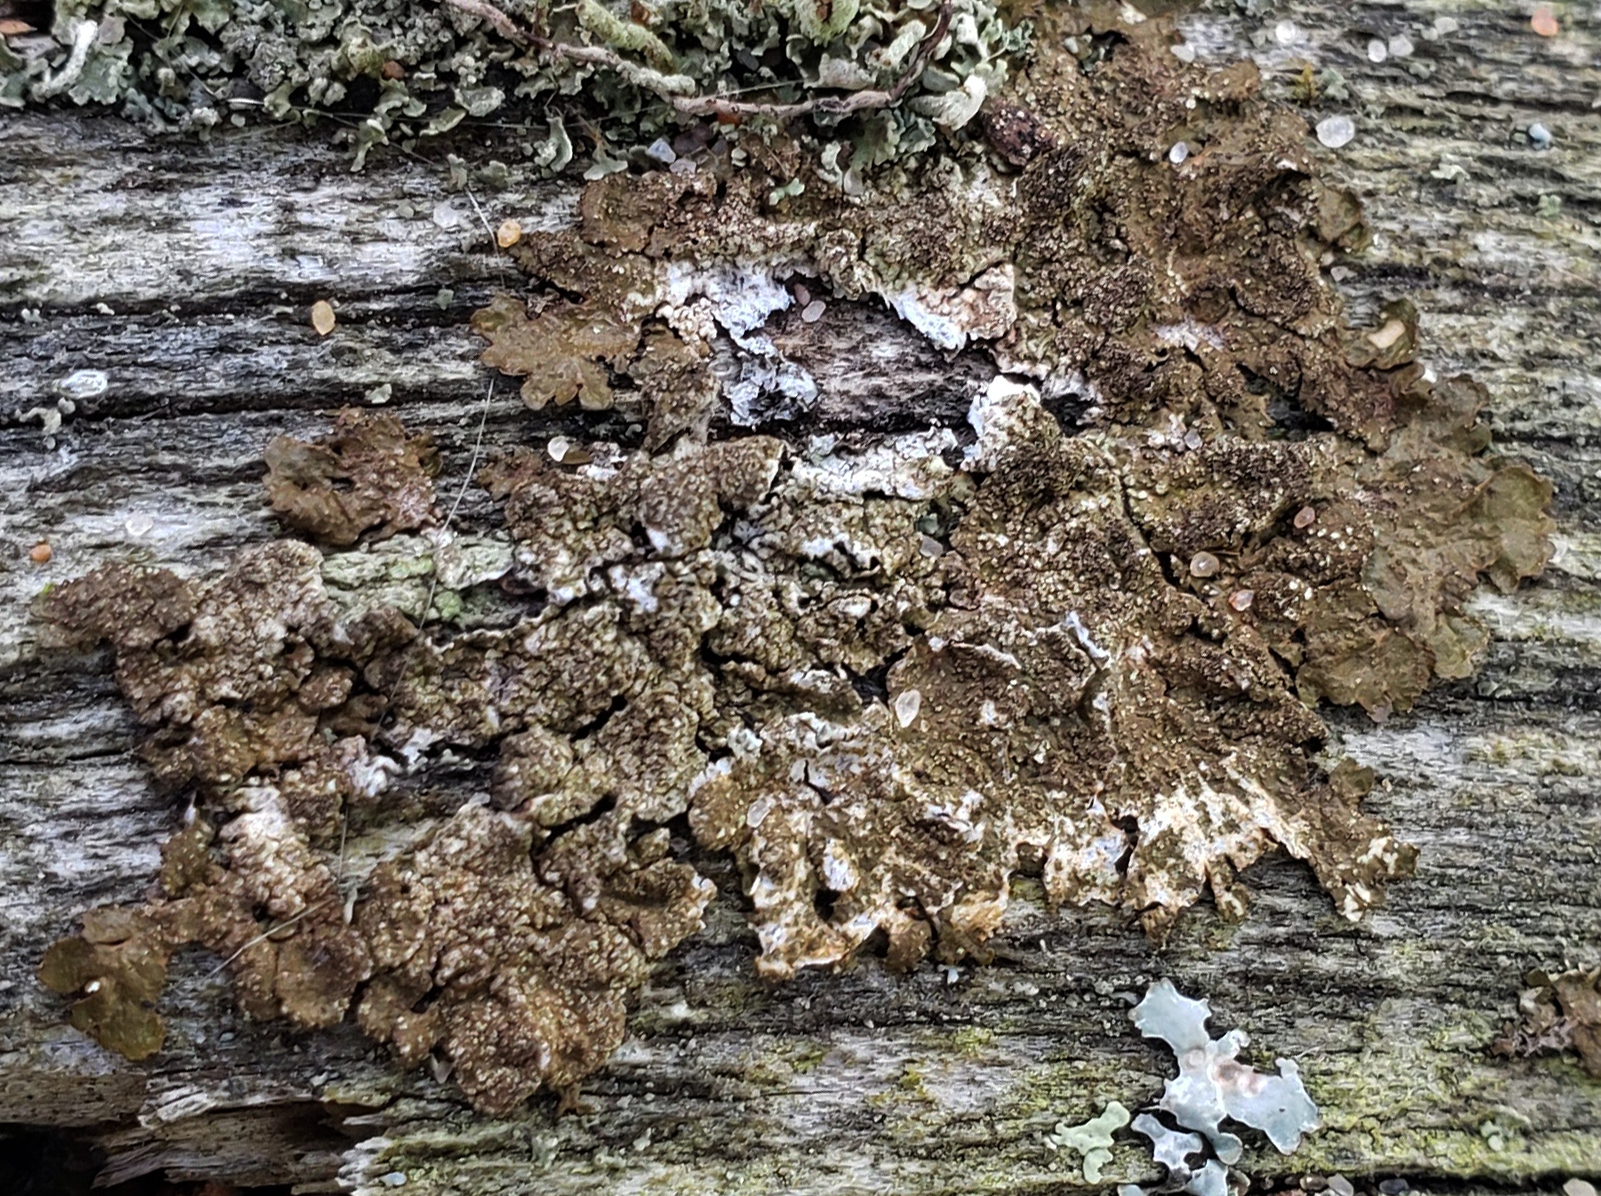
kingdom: Fungi
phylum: Ascomycota
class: Lecanoromycetes
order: Lecanorales
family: Parmeliaceae
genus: Melanelixia
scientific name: Melanelixia subaurifera
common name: Abraded camouflage lichen
